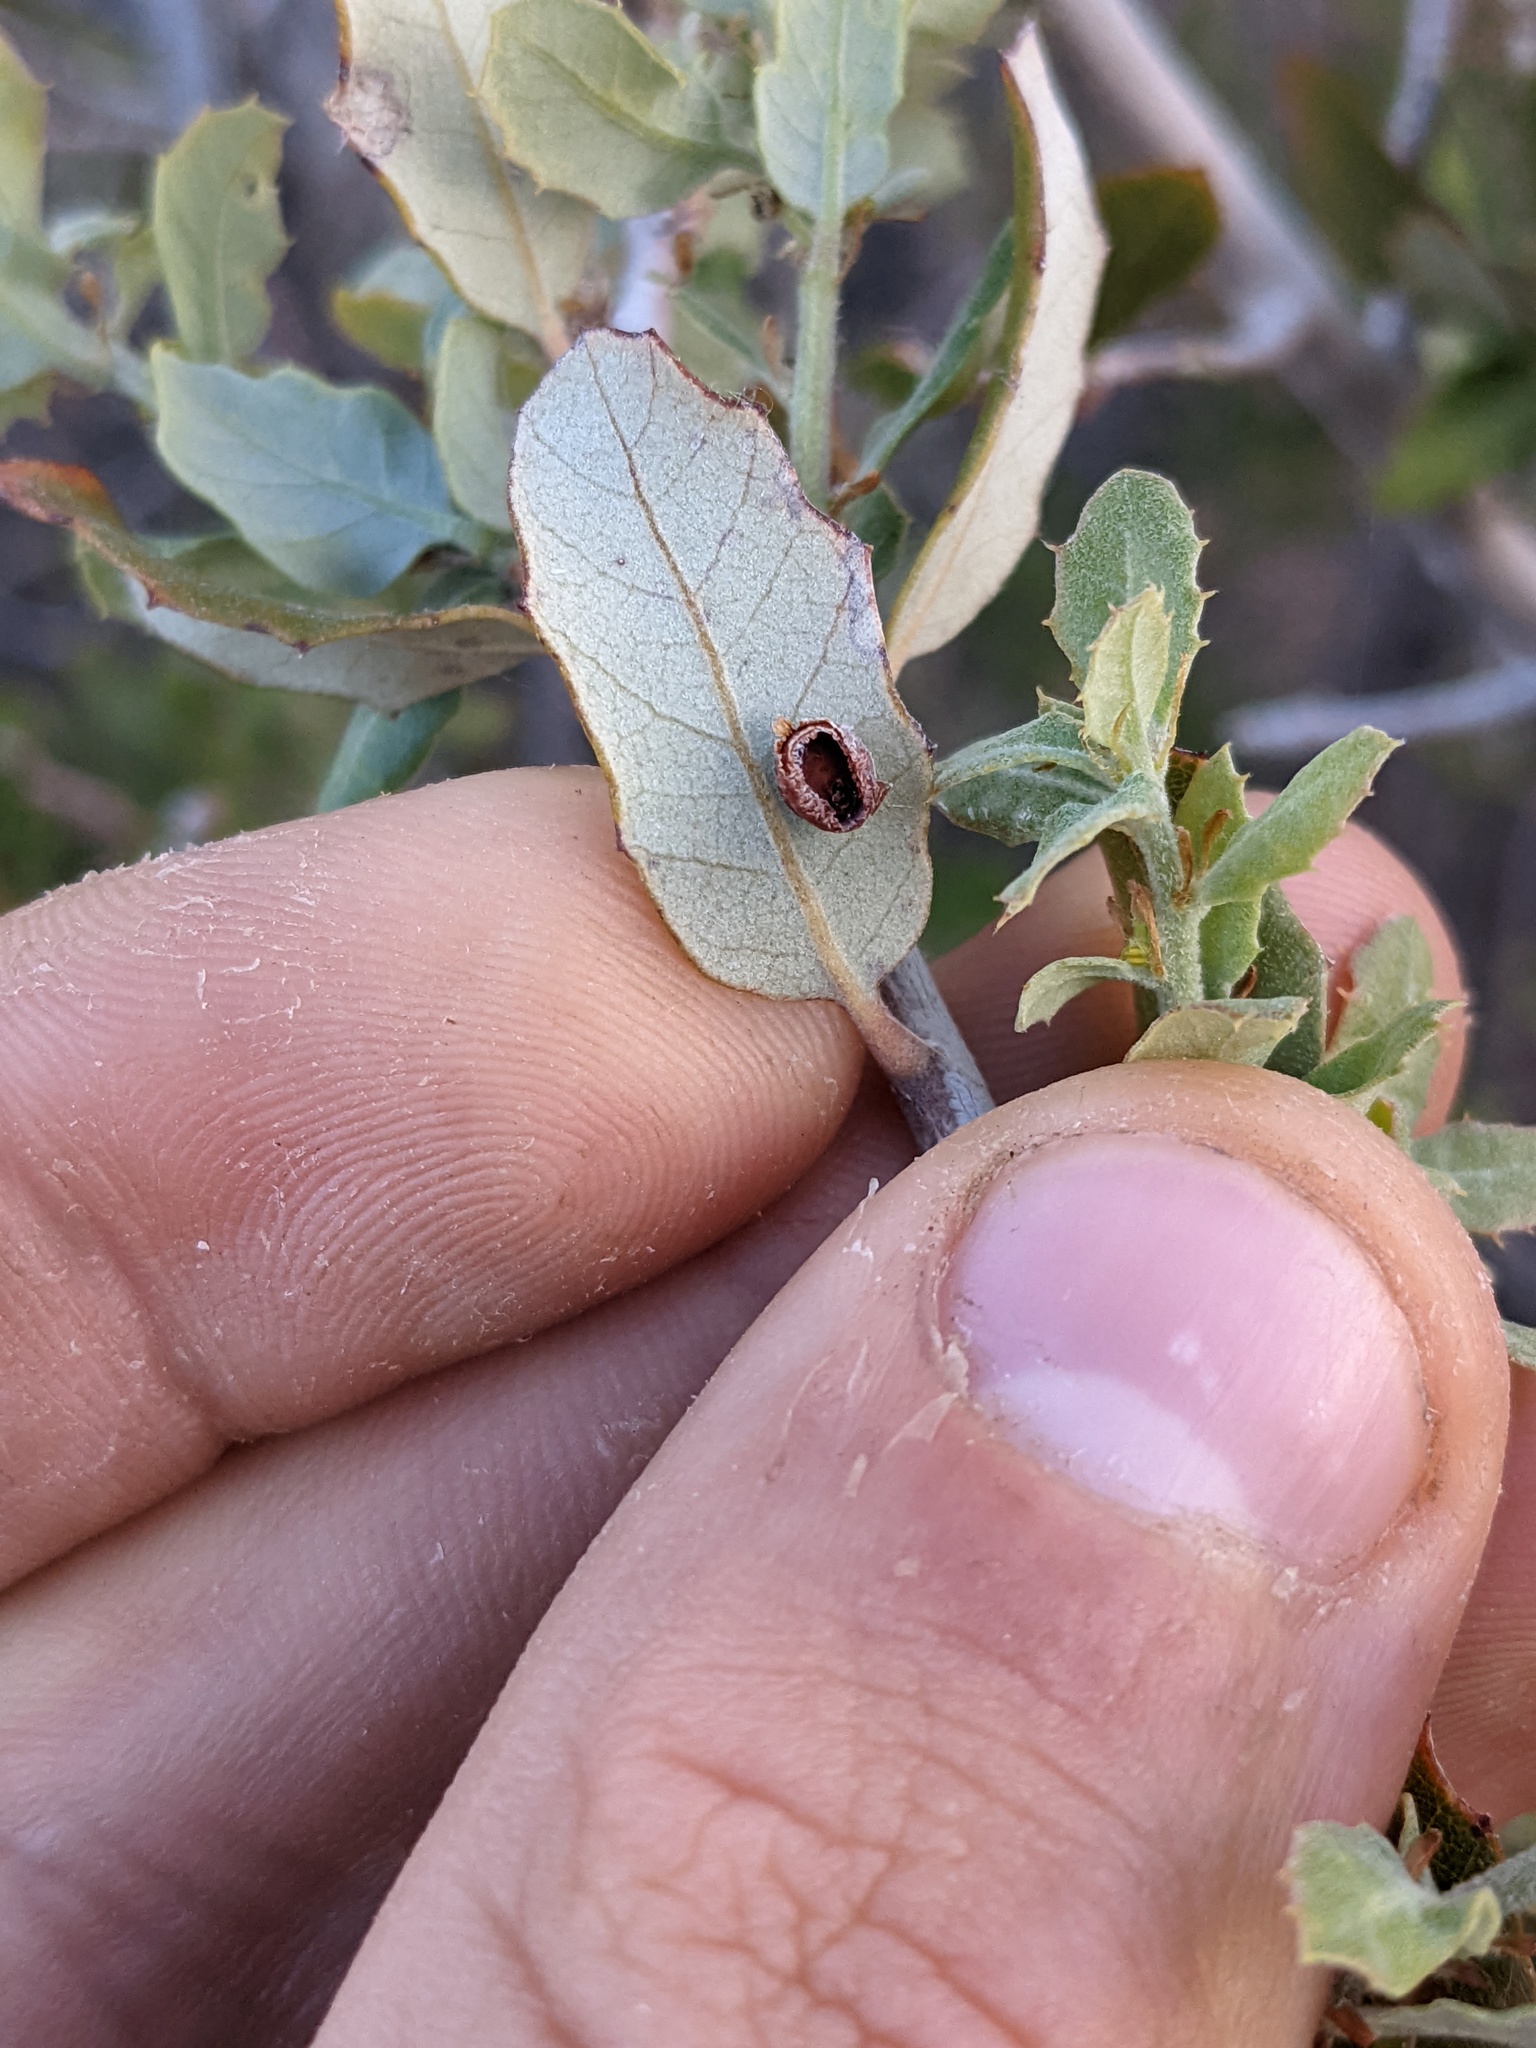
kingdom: Animalia
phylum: Arthropoda
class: Insecta
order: Hymenoptera
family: Cynipidae
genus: Andricus
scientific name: Andricus
